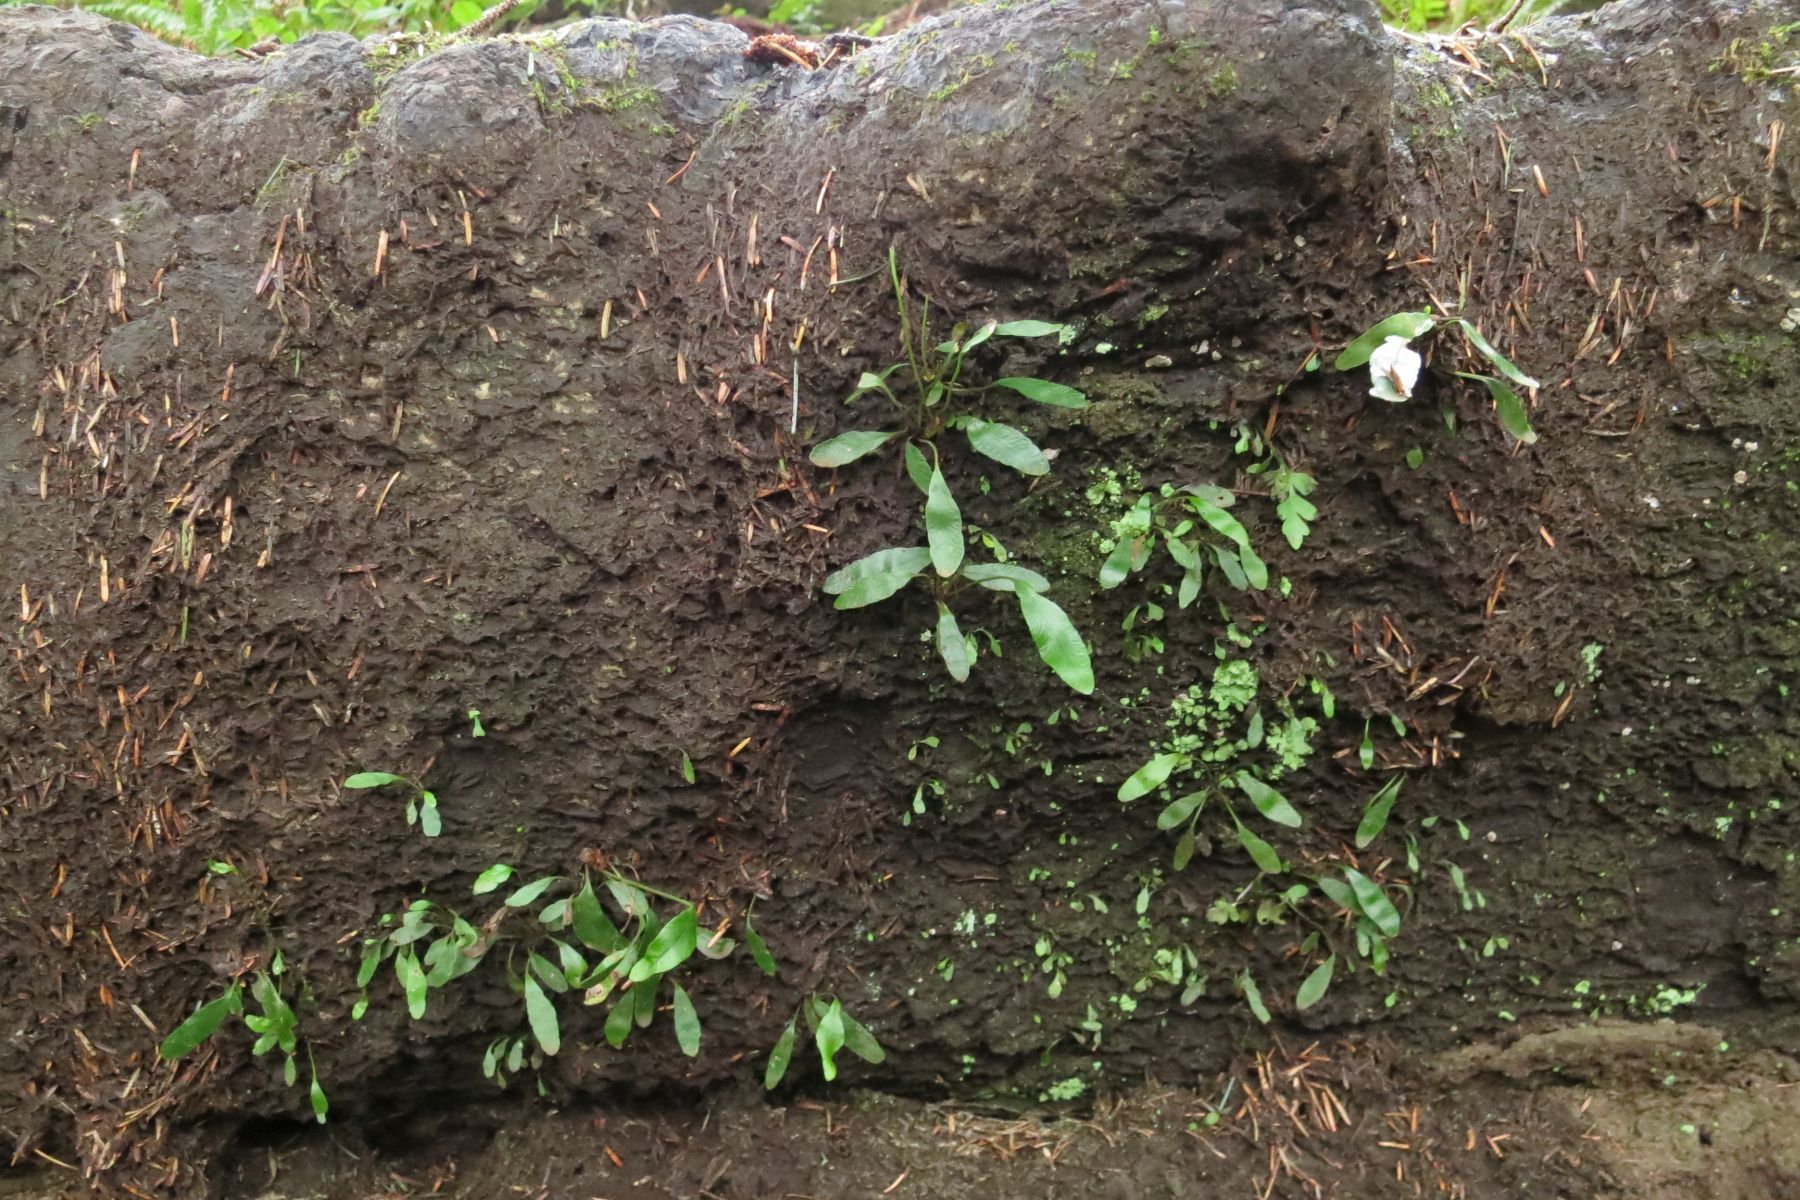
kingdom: Plantae
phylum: Tracheophyta
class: Polypodiopsida
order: Polypodiales
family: Polypodiaceae
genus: Polypodium
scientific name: Polypodium scouleri
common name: Scouler's polypody
